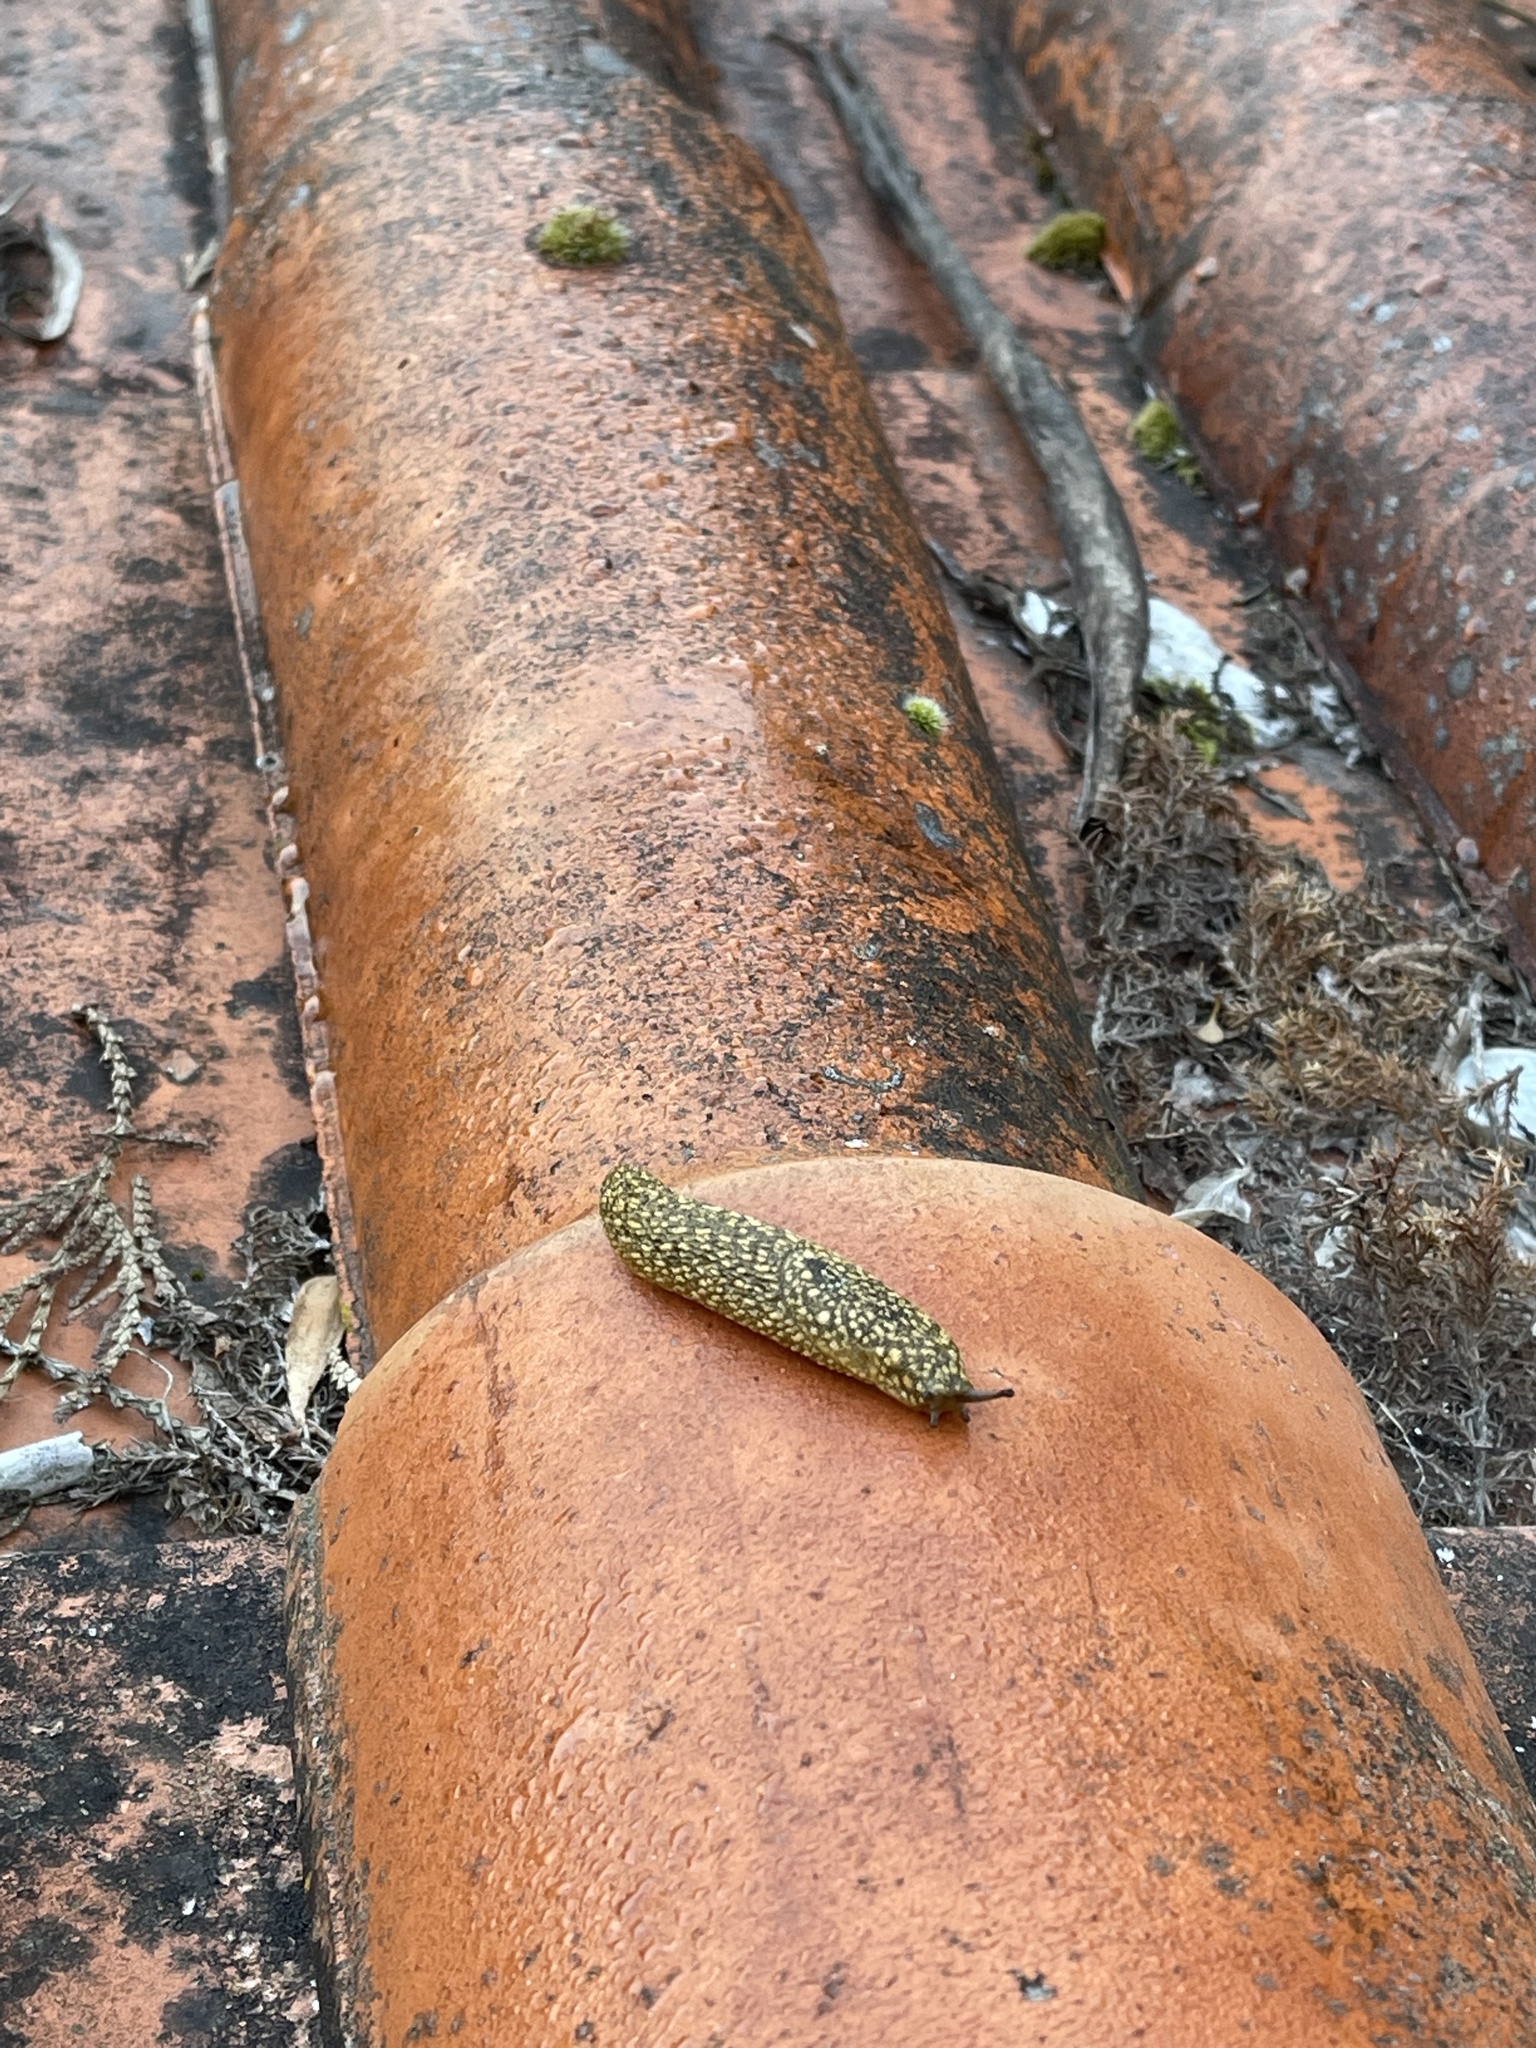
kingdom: Animalia
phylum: Mollusca
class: Gastropoda
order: Stylommatophora
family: Arionidae
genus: Geomalacus
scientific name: Geomalacus maculosus
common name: Kerry slug
